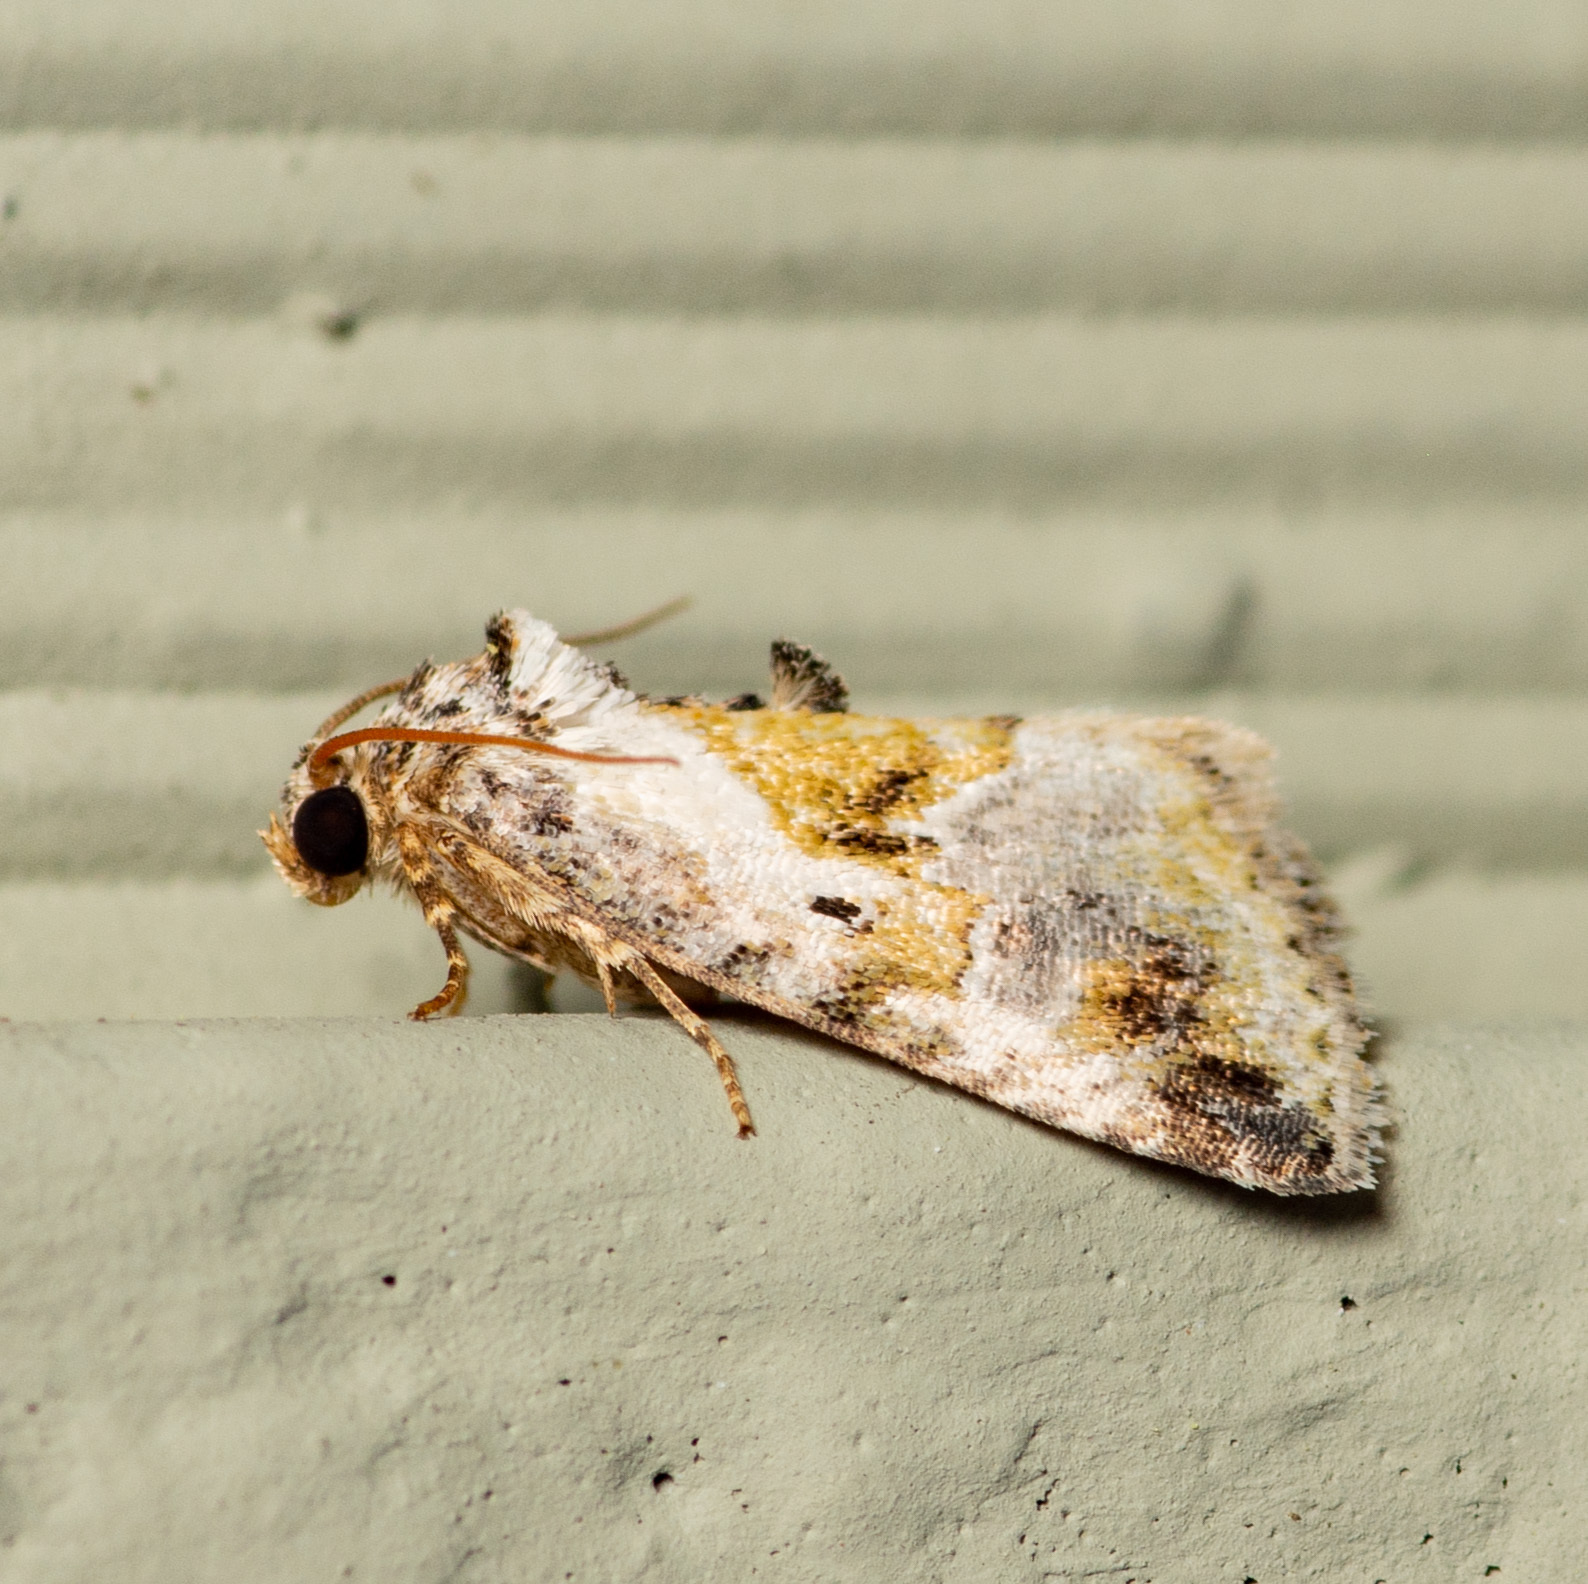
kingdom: Animalia
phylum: Arthropoda
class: Insecta
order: Lepidoptera
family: Noctuidae
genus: Maliattha
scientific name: Maliattha synochitis
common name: Black-dotted glyph
